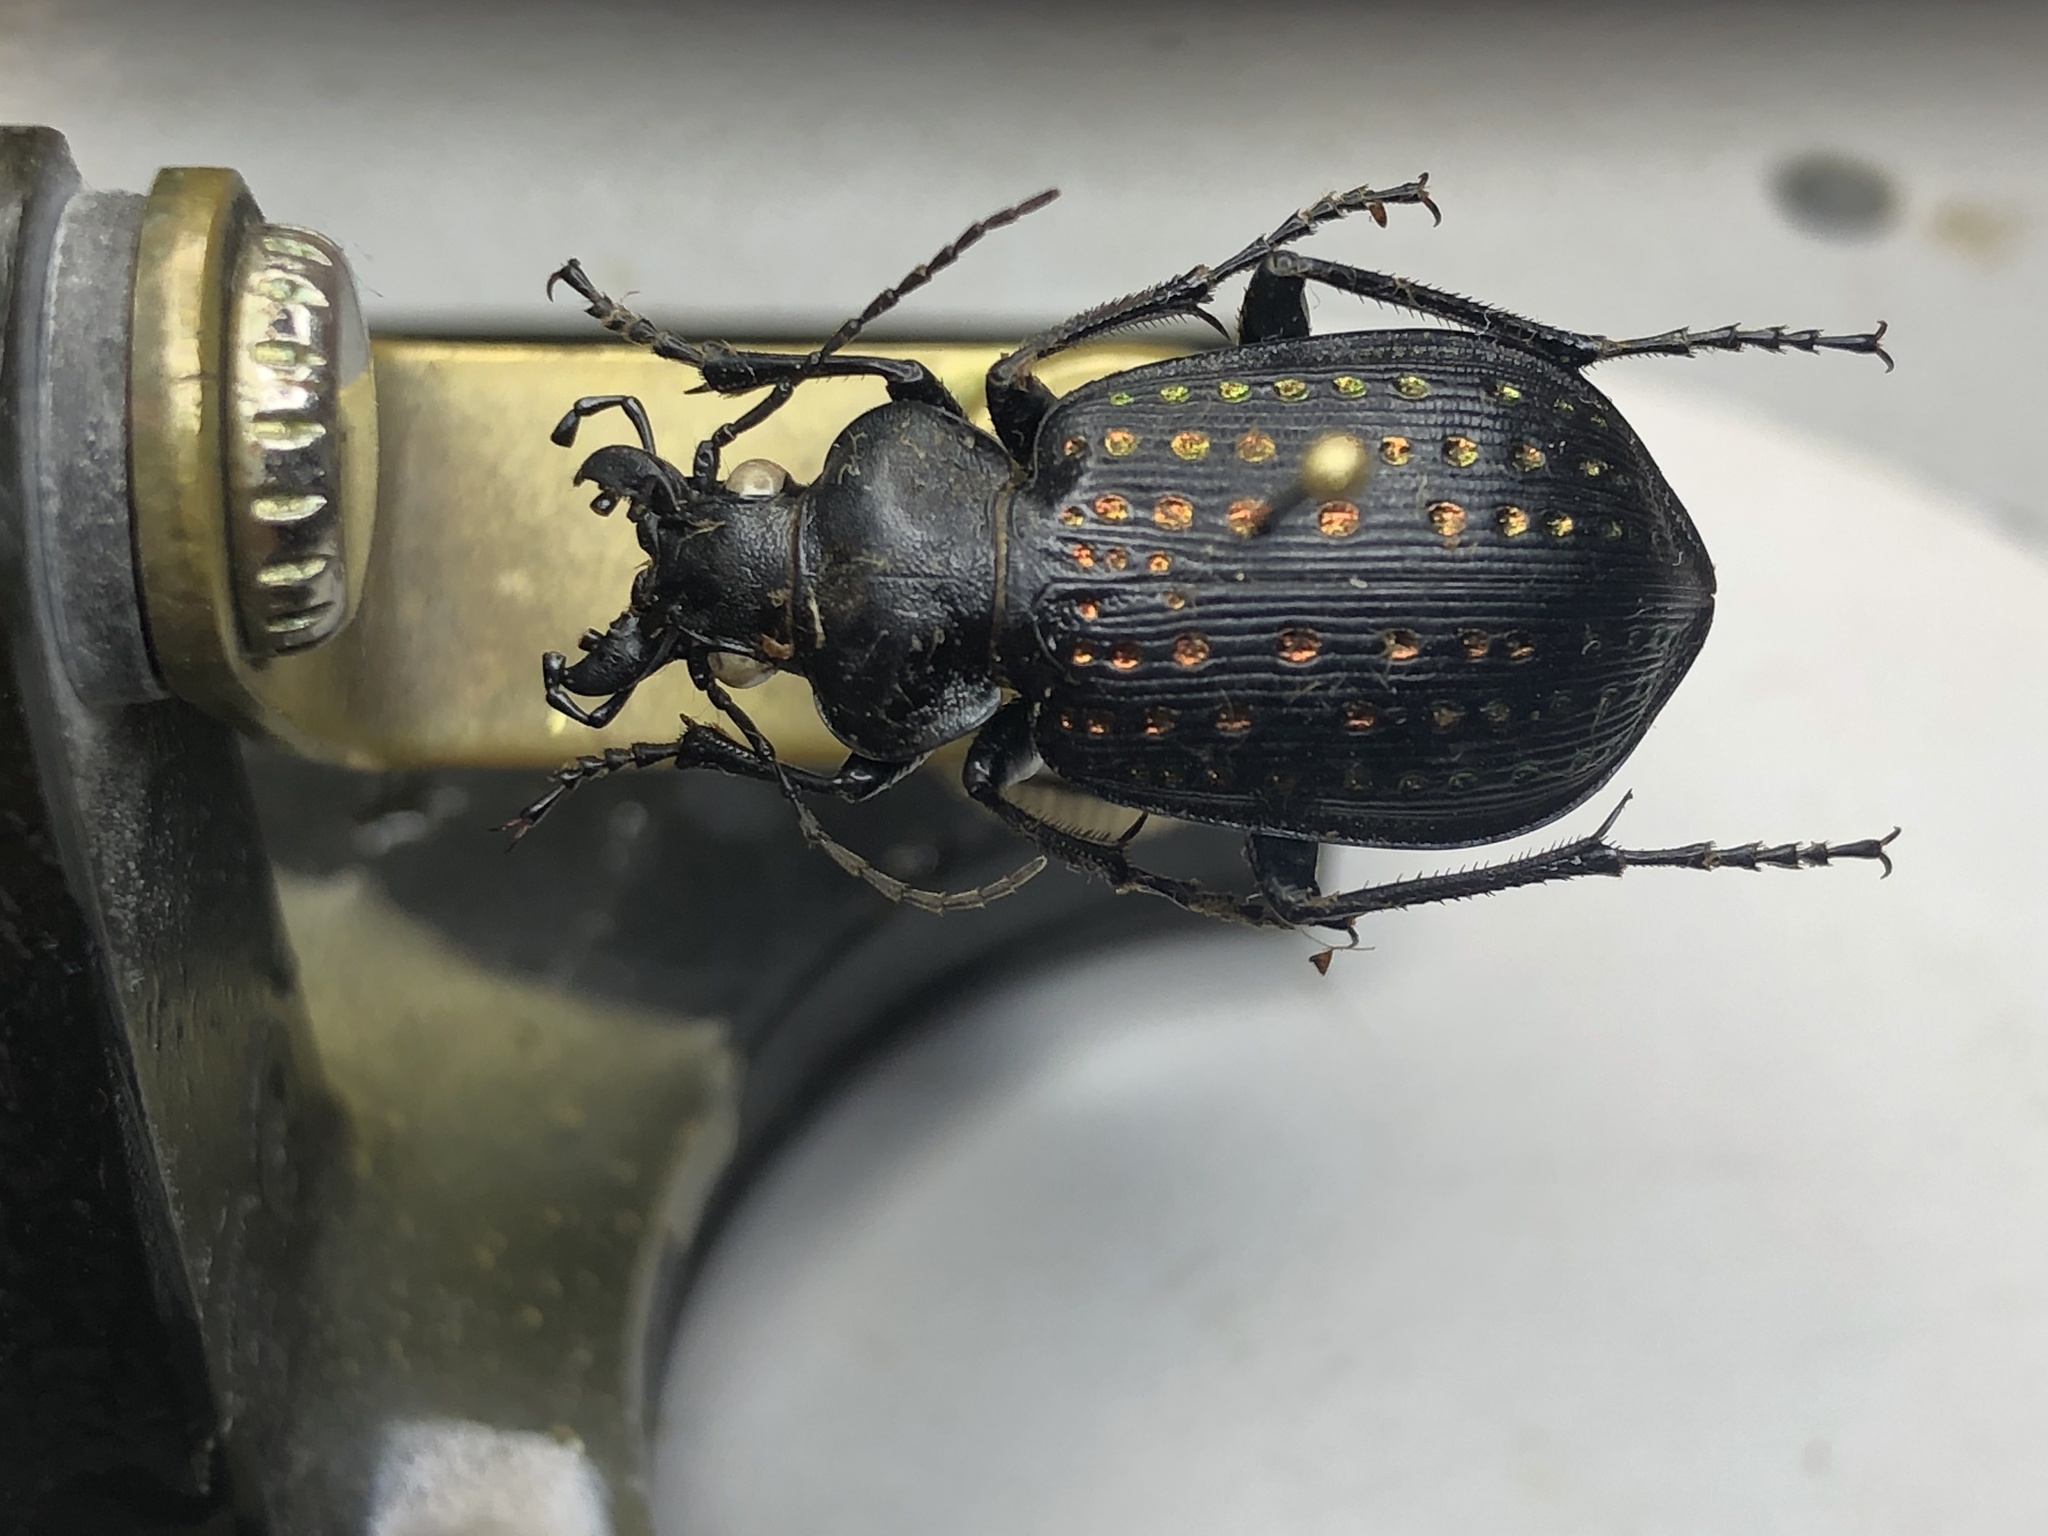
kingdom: Animalia
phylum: Arthropoda
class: Insecta
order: Coleoptera
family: Carabidae
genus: Calosoma
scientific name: Calosoma calidum
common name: Fiery hunter
